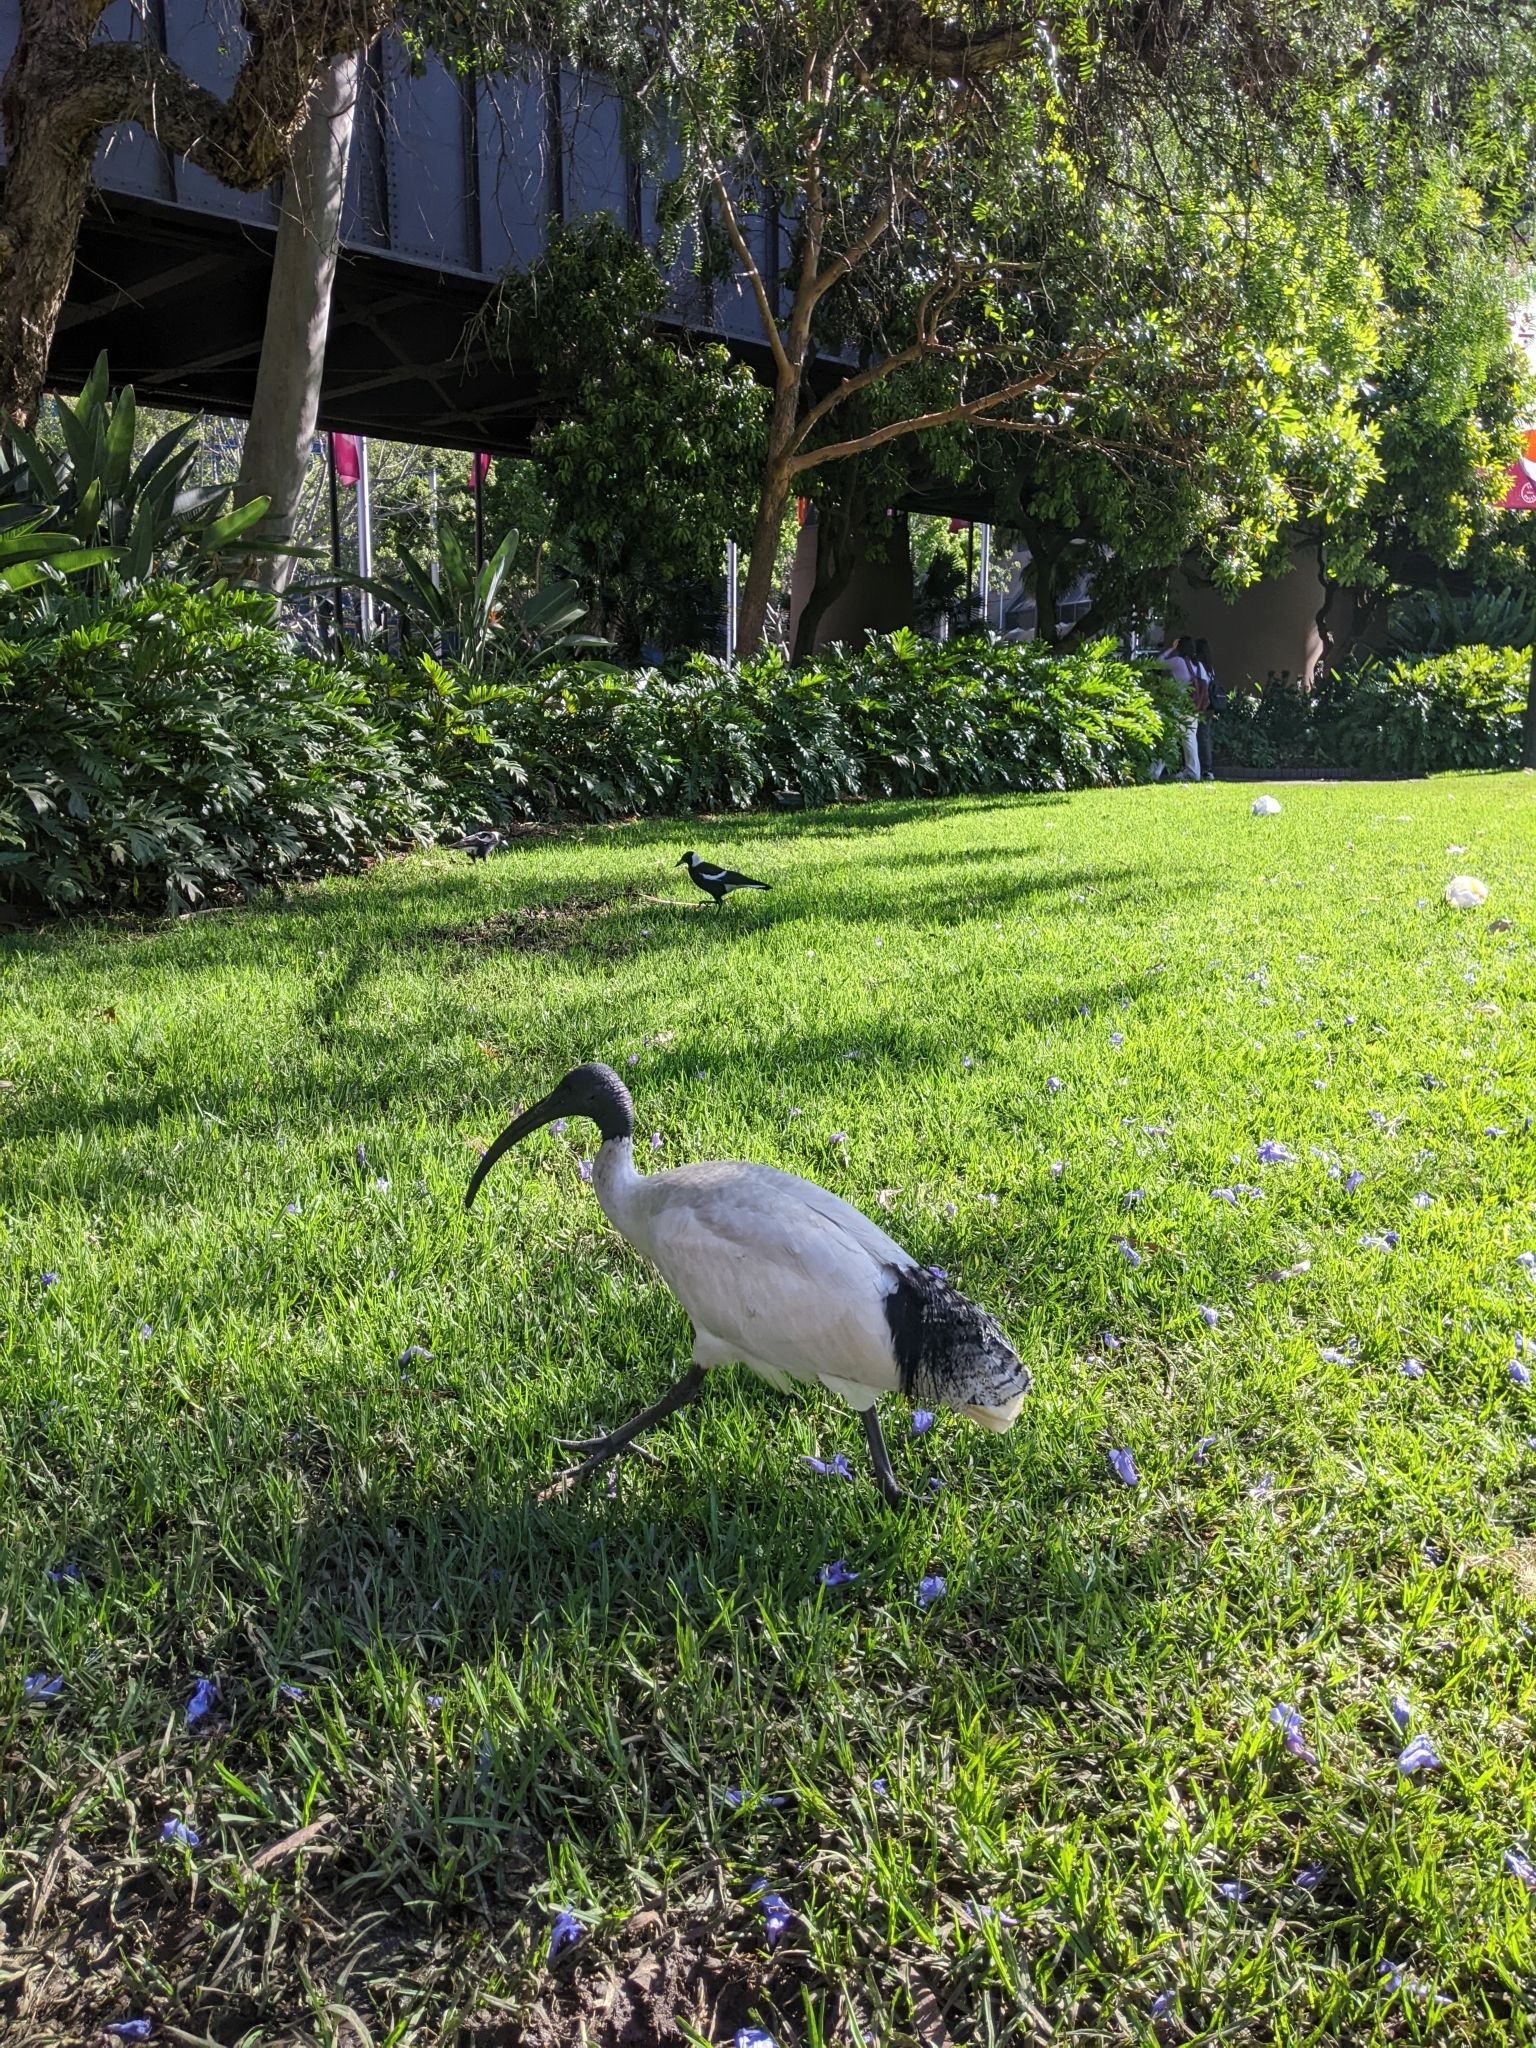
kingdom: Animalia
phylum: Chordata
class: Aves
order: Pelecaniformes
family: Threskiornithidae
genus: Threskiornis
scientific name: Threskiornis molucca
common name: Australian white ibis
